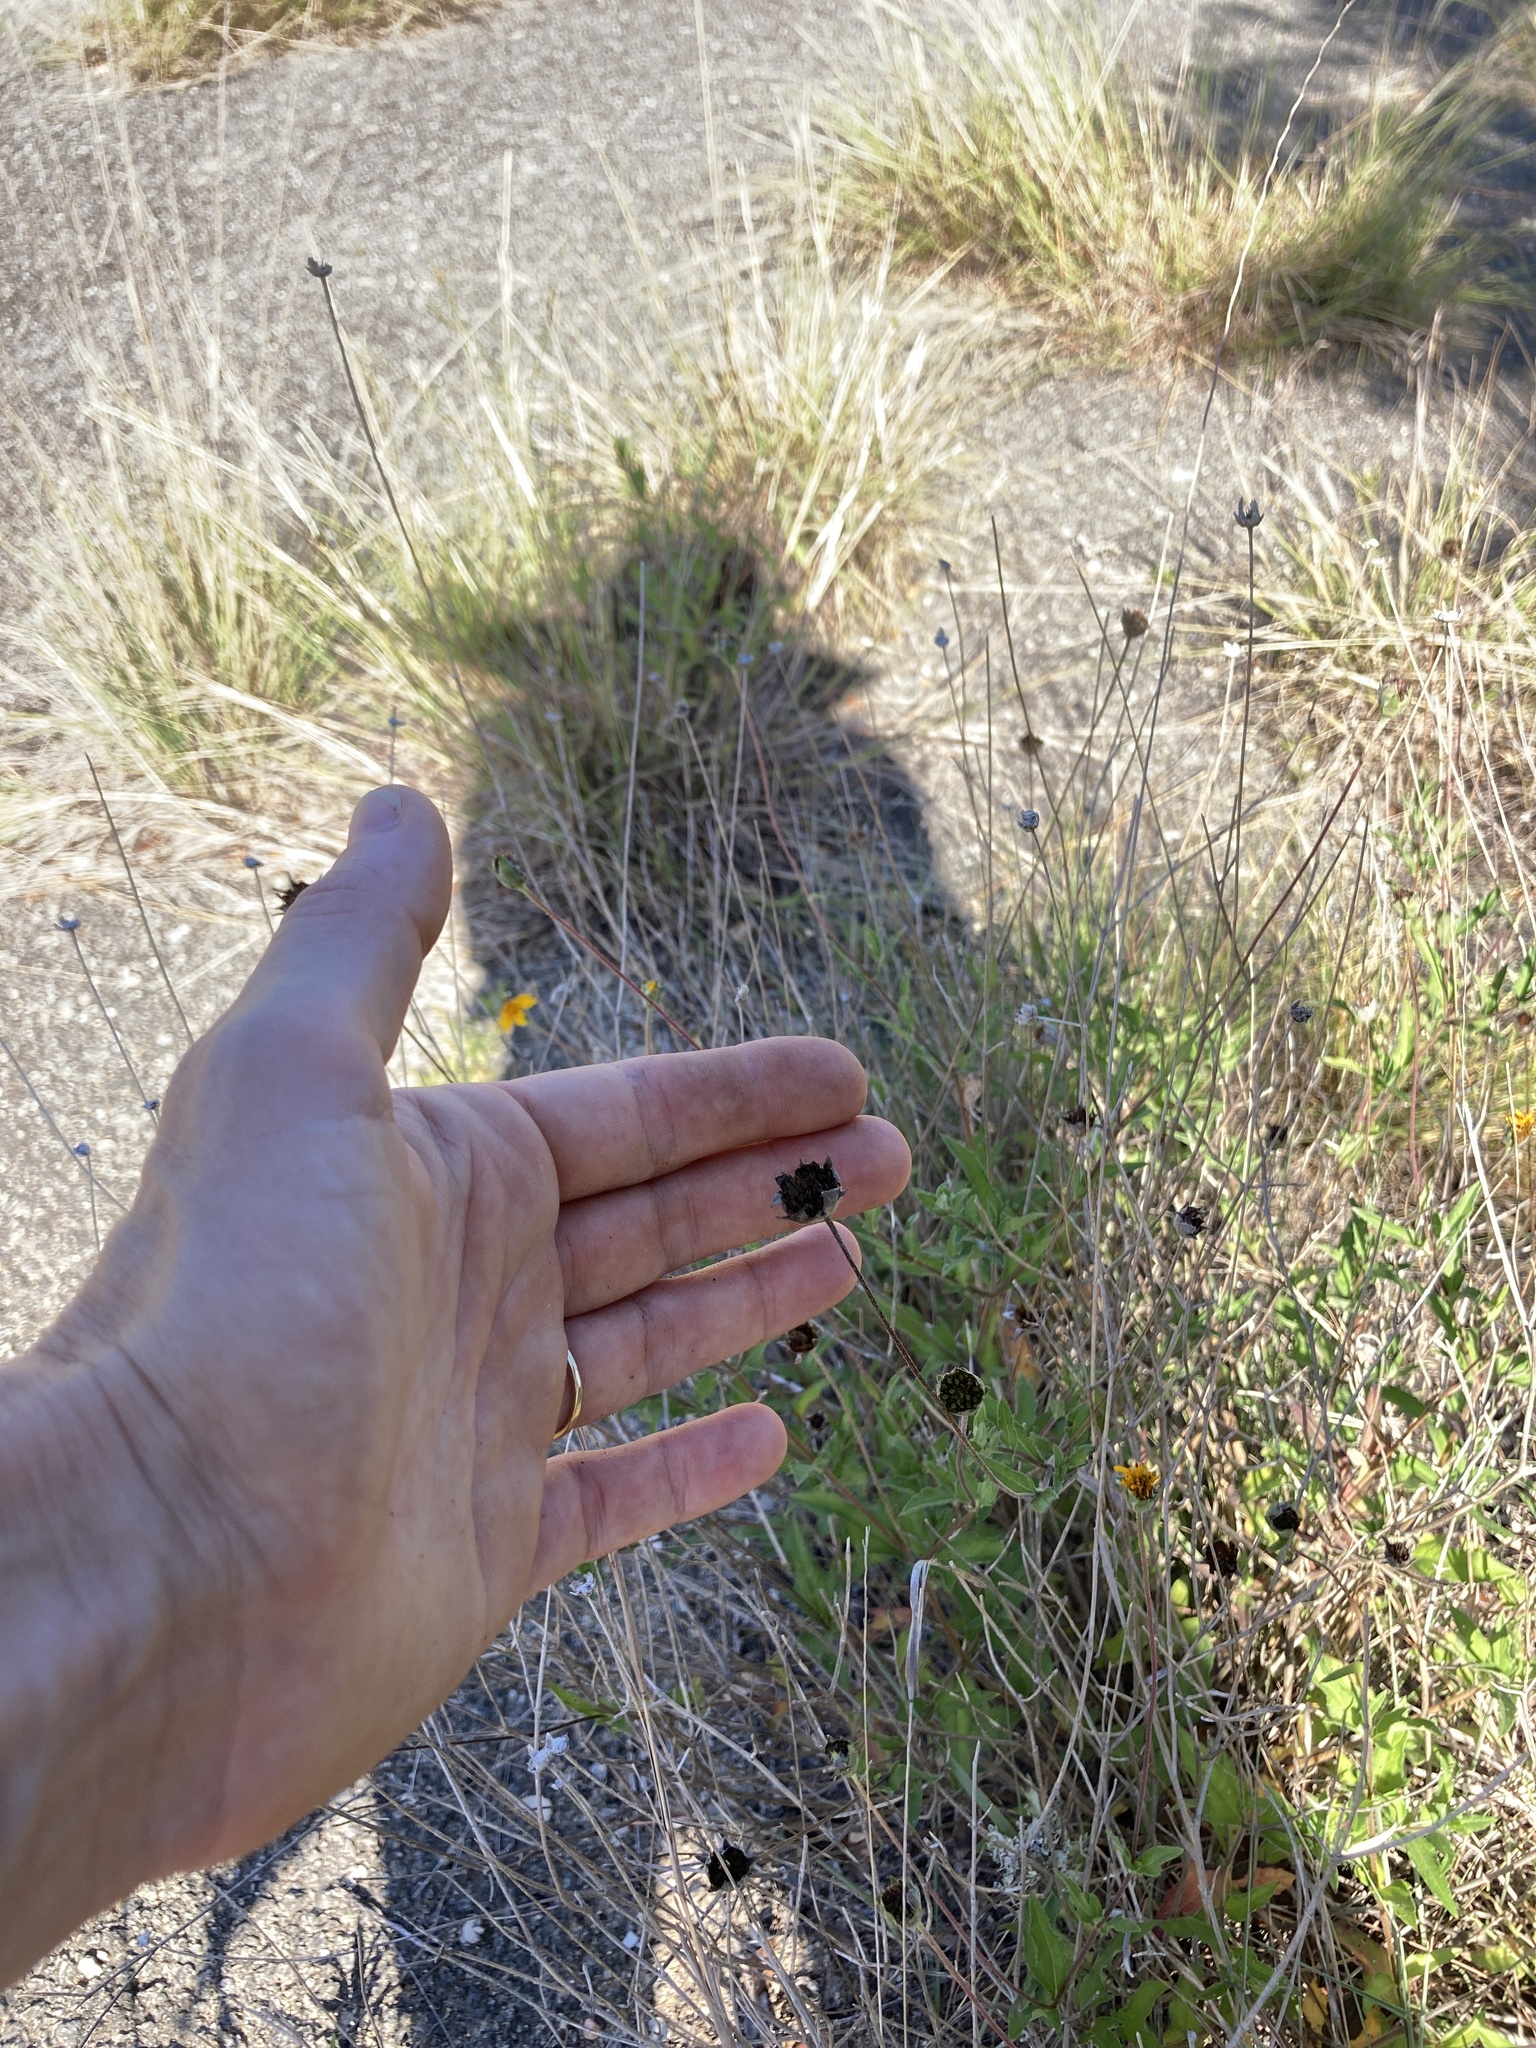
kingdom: Plantae
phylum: Tracheophyta
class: Magnoliopsida
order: Asterales
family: Asteraceae
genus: Wedelia
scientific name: Wedelia acapulcensis
